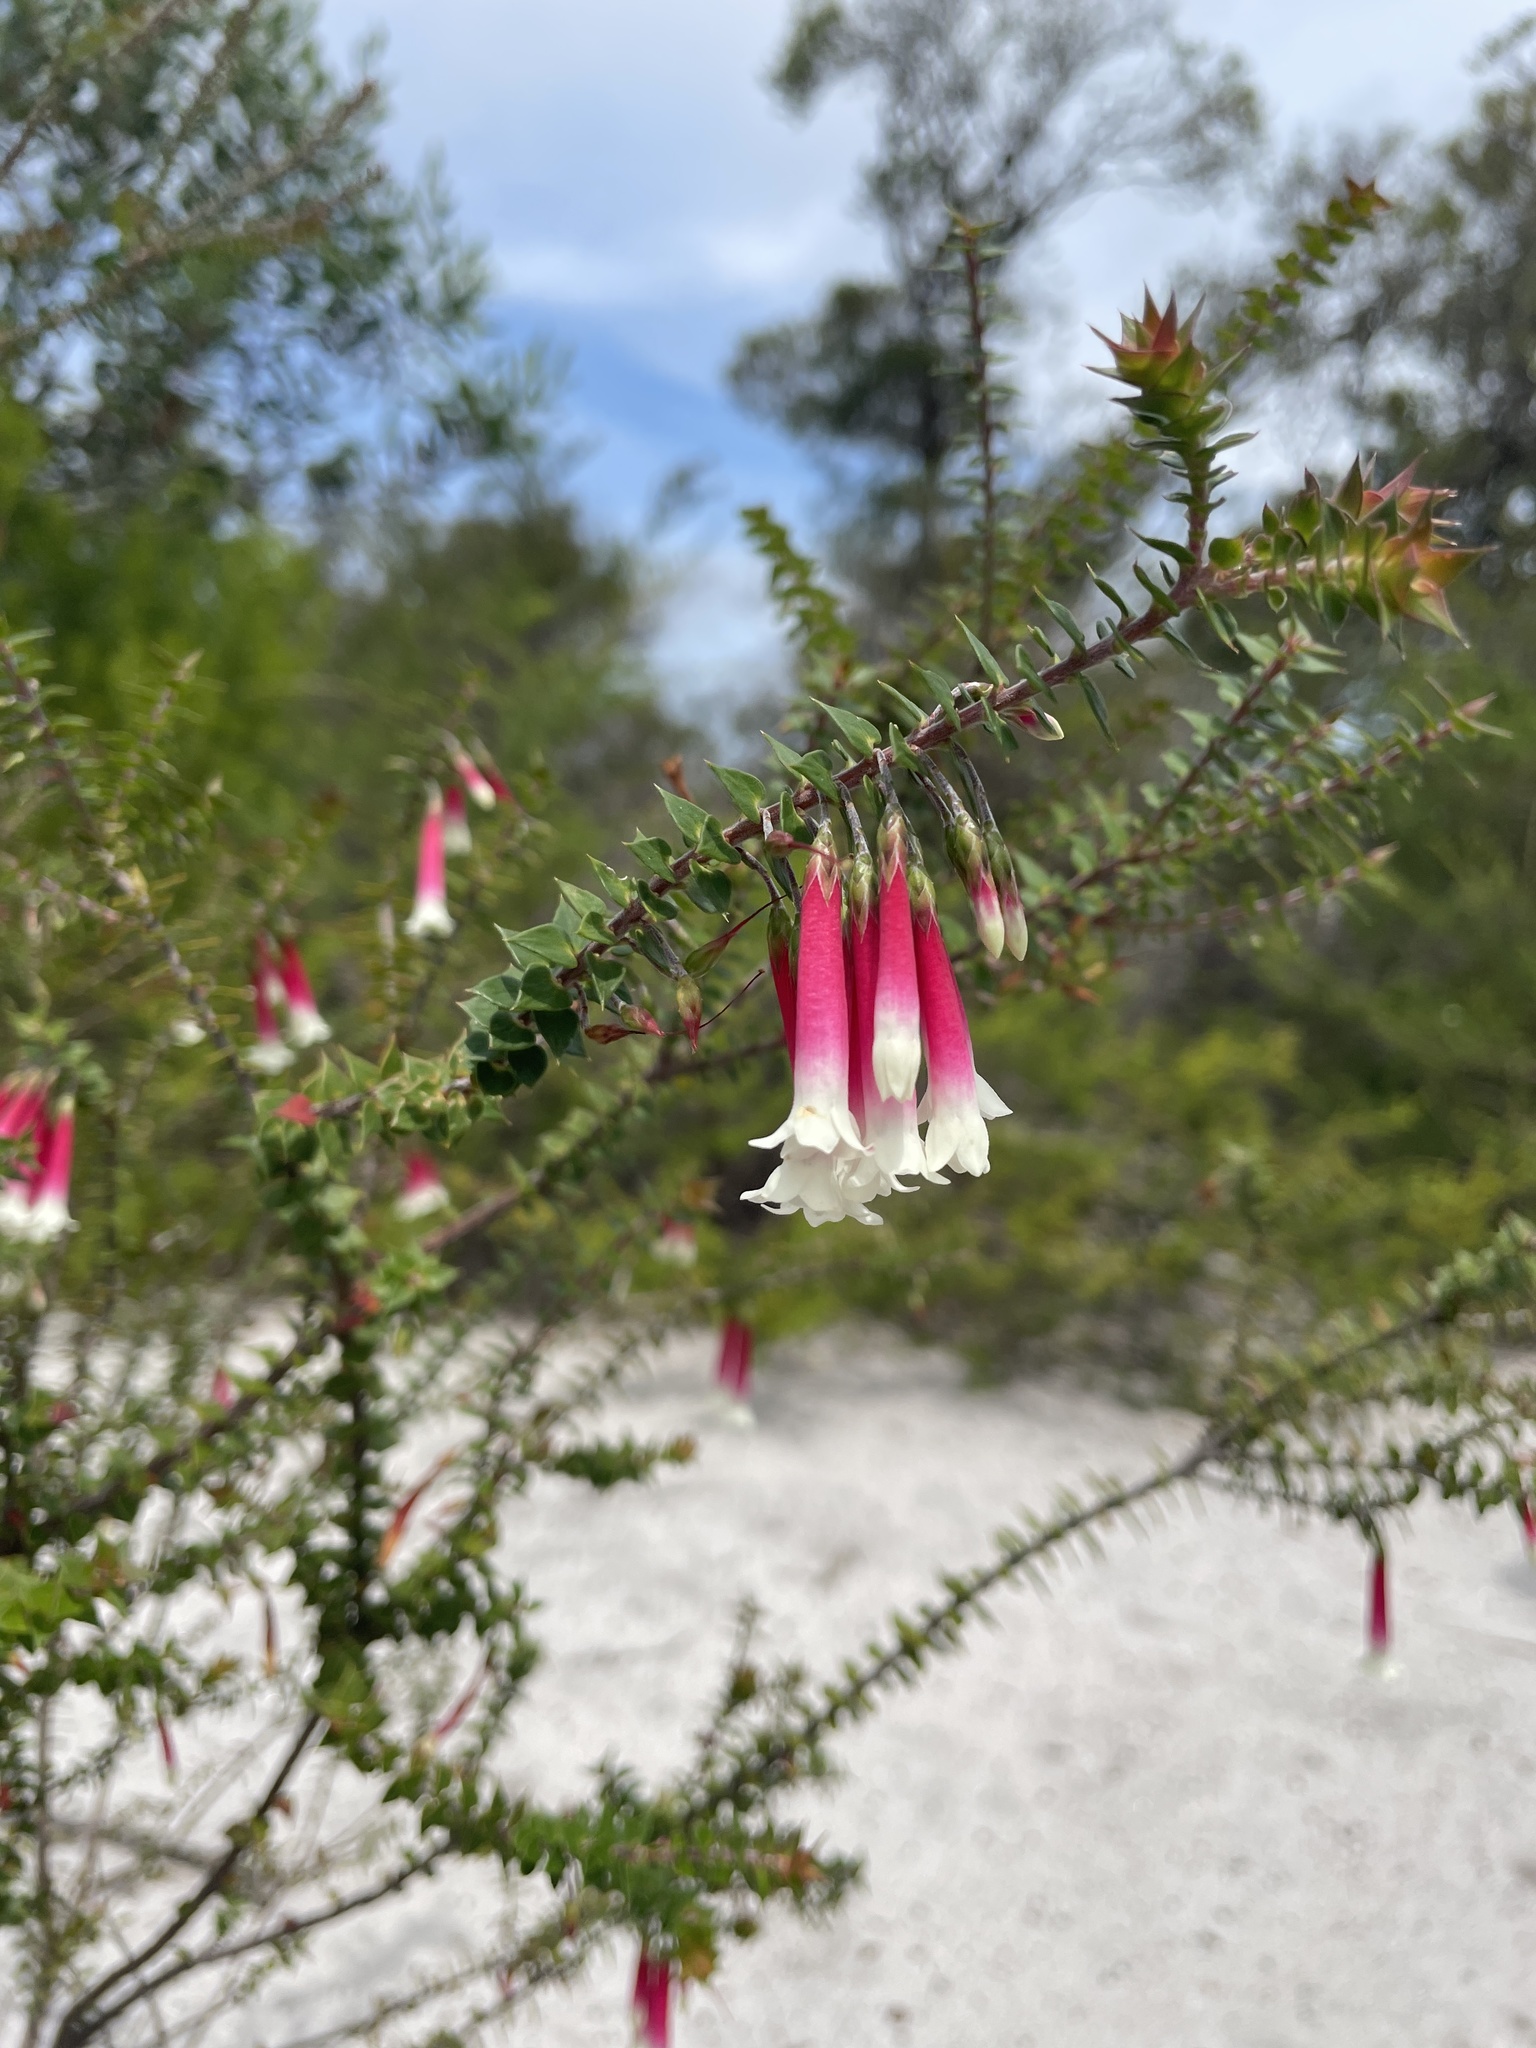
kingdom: Plantae
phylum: Tracheophyta
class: Magnoliopsida
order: Ericales
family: Ericaceae
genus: Epacris
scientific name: Epacris longiflora
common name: Fuchsia-heath
